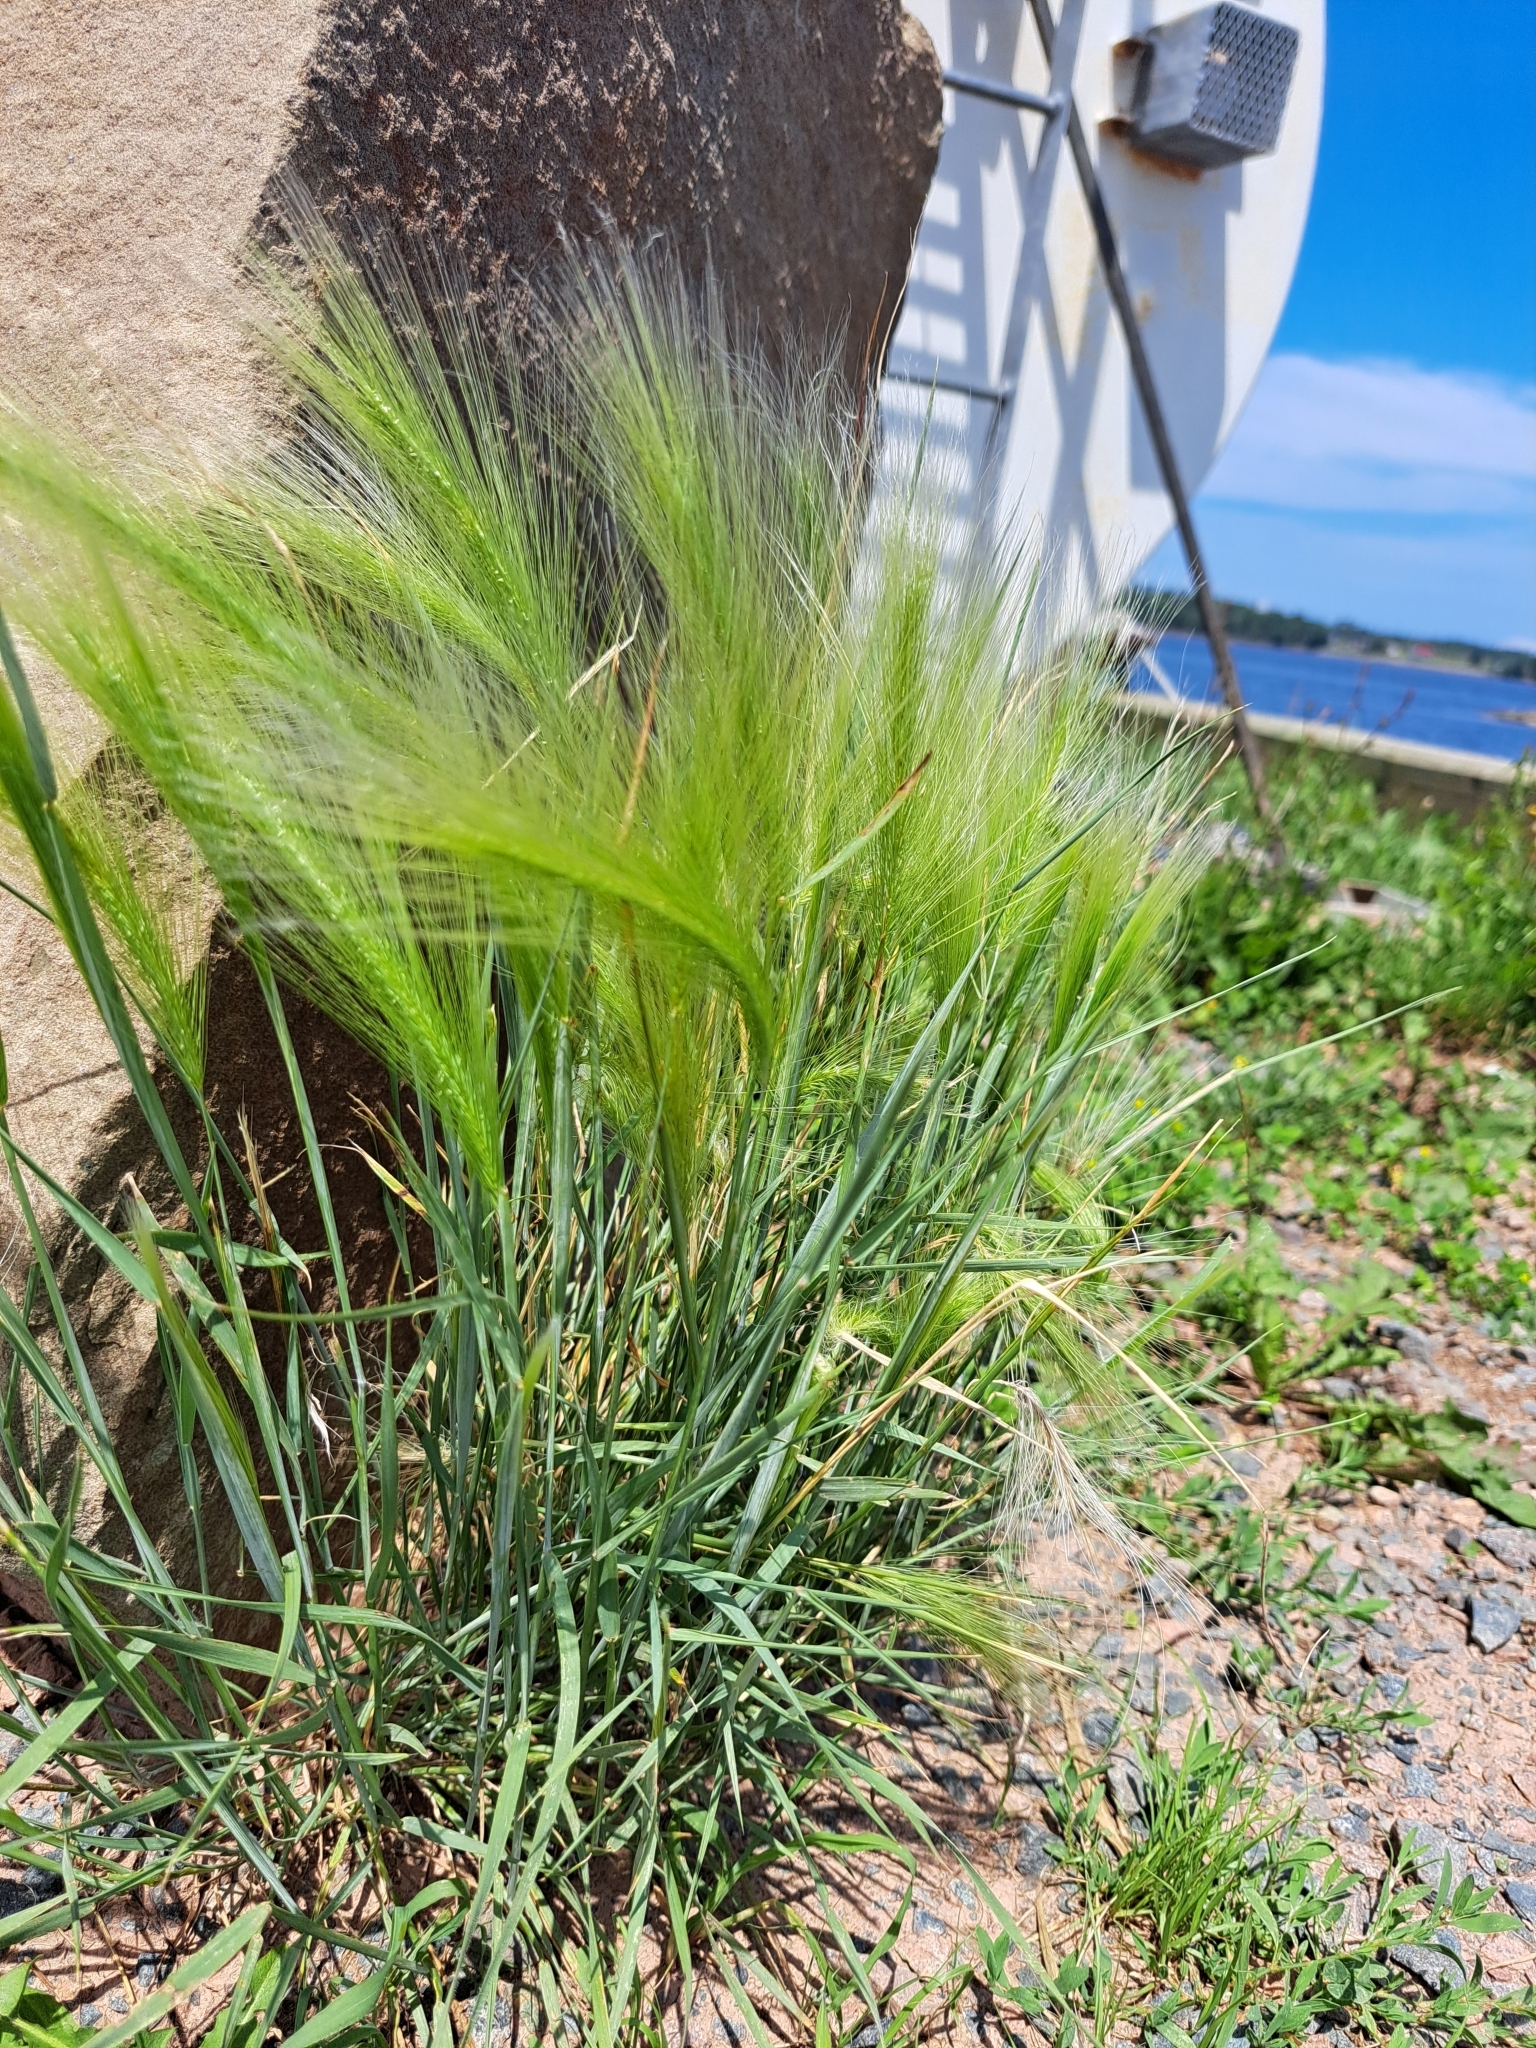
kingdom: Plantae
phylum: Tracheophyta
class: Liliopsida
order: Poales
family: Poaceae
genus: Hordeum
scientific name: Hordeum jubatum
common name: Foxtail barley
